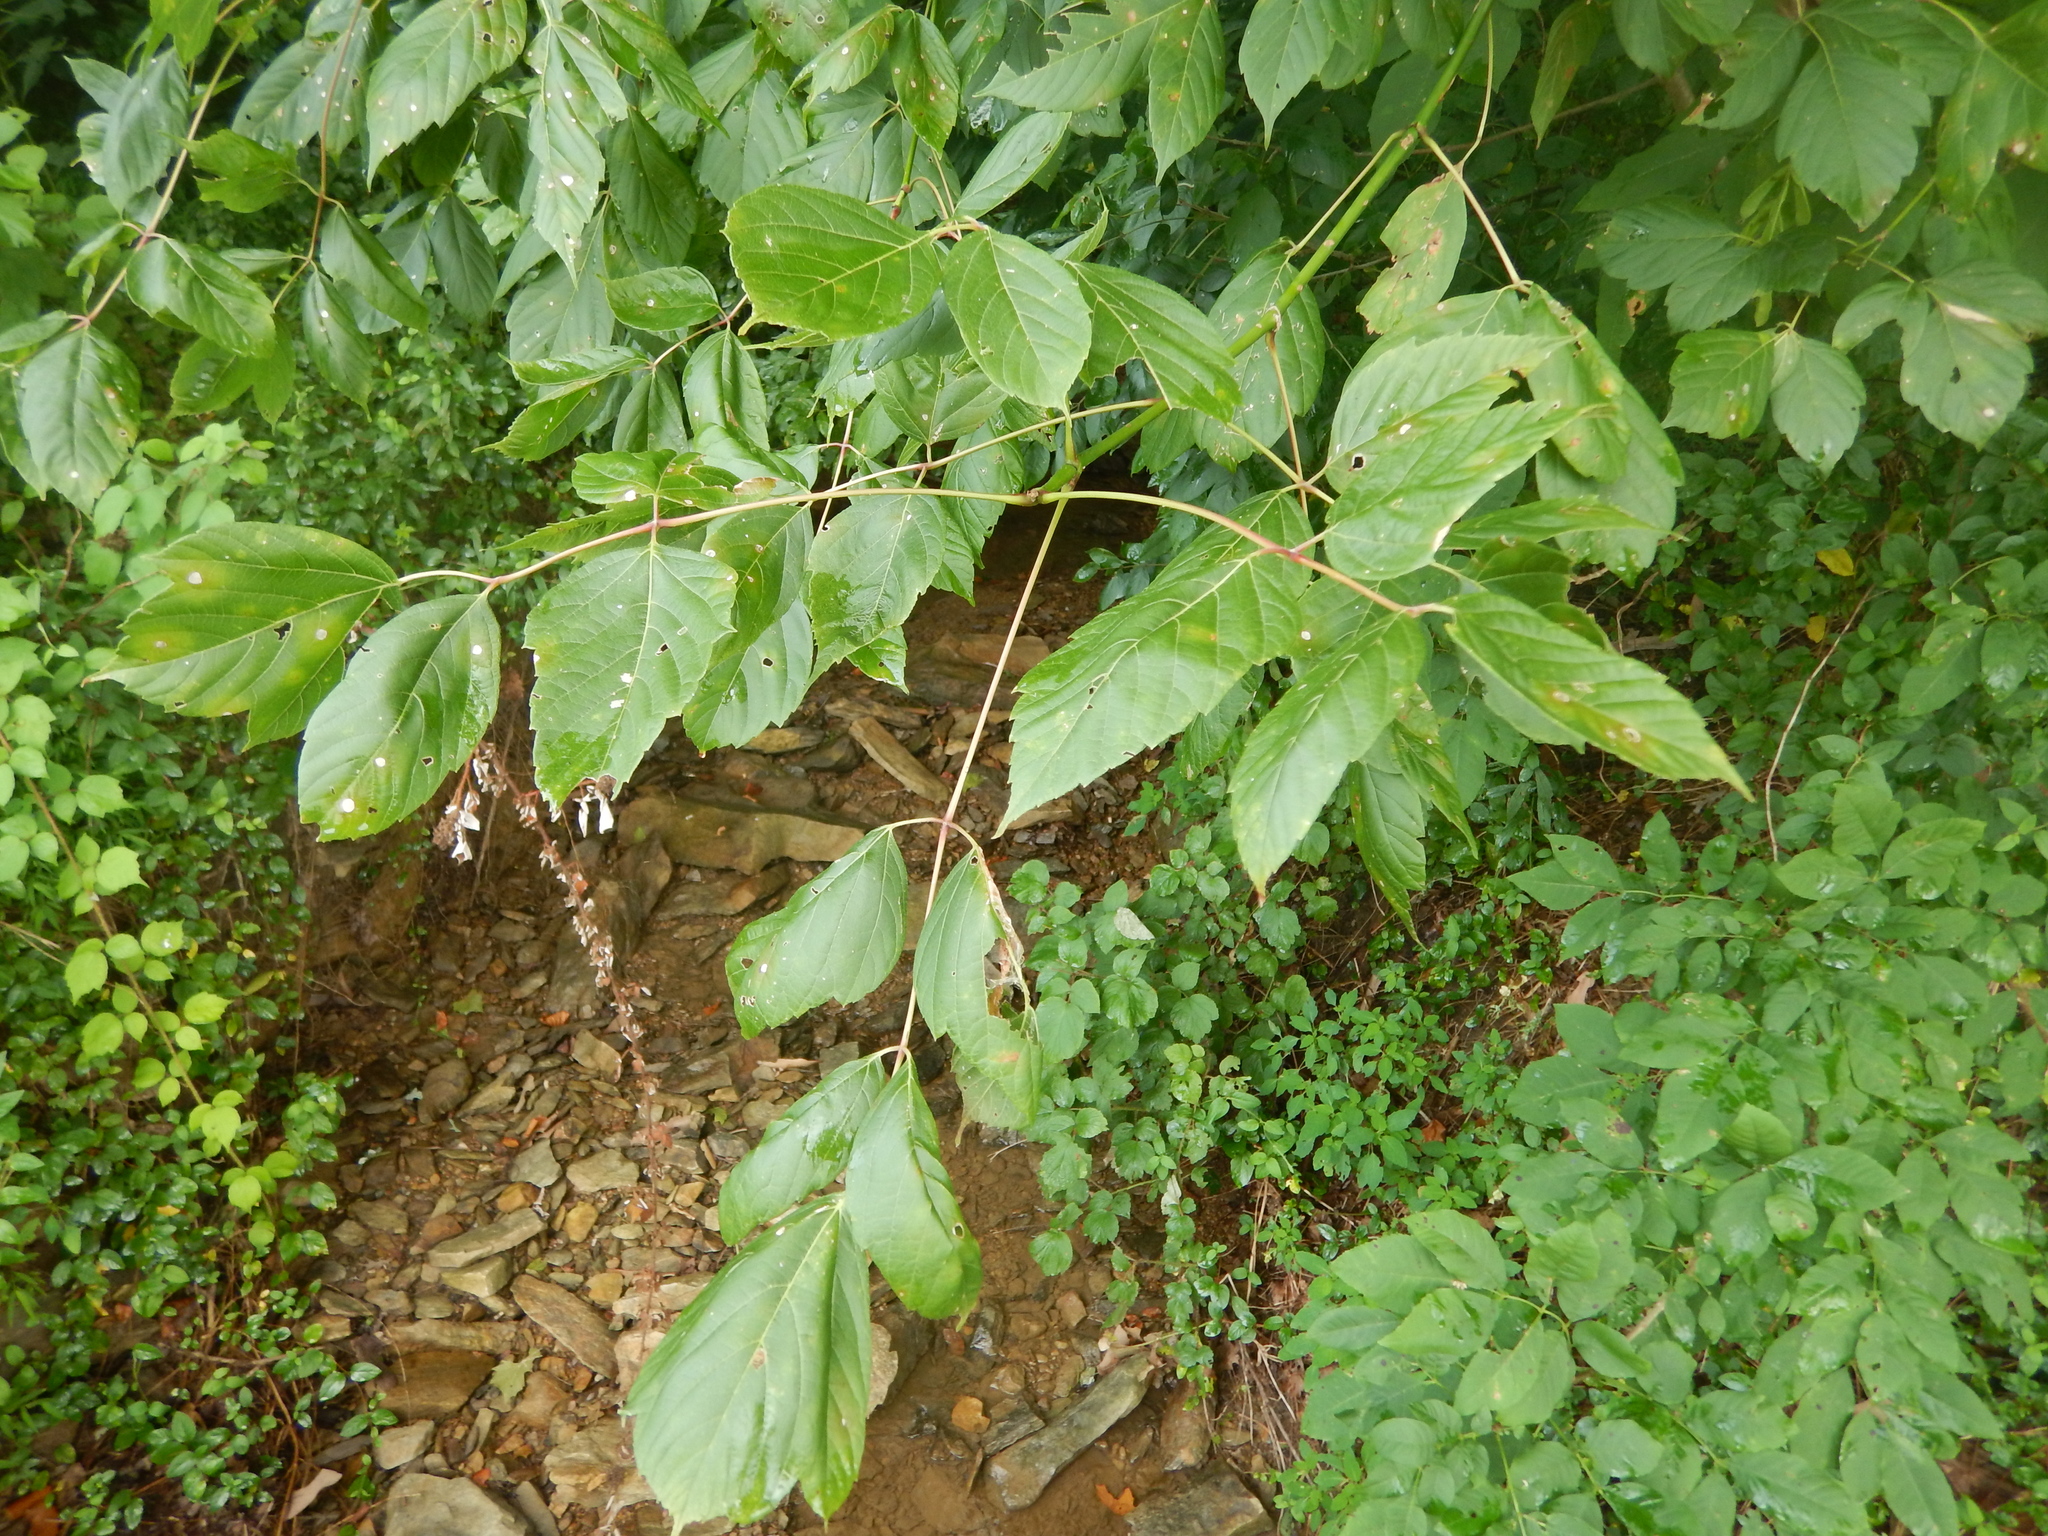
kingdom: Plantae
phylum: Tracheophyta
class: Magnoliopsida
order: Sapindales
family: Sapindaceae
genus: Acer
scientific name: Acer negundo
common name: Ashleaf maple
